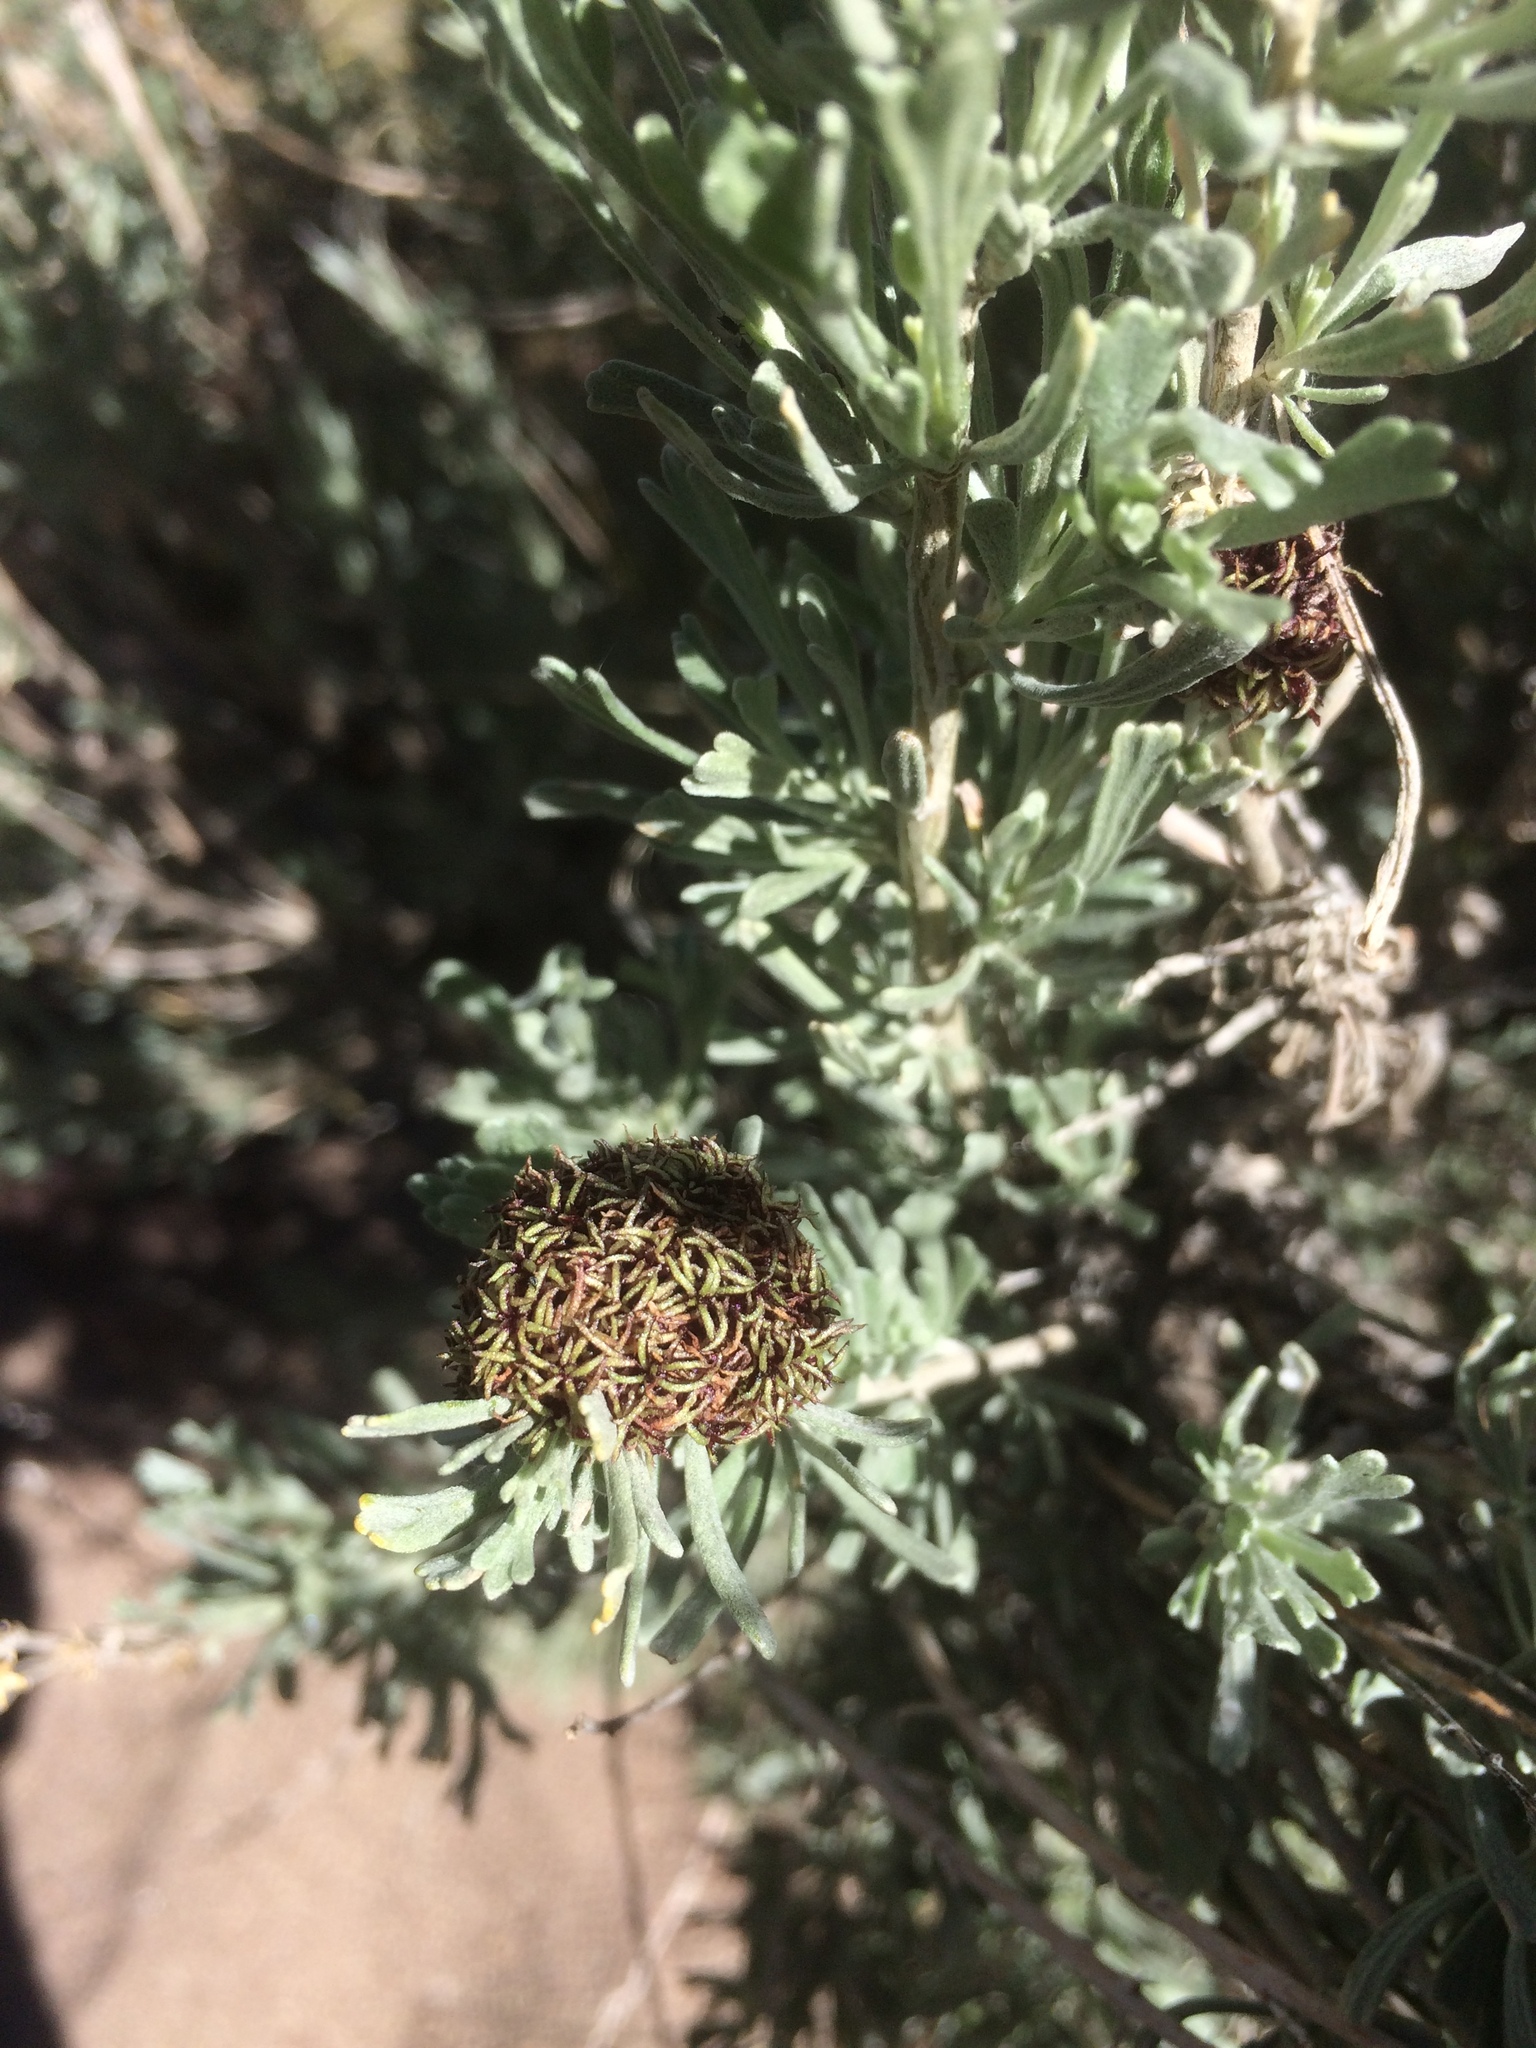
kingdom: Animalia
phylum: Arthropoda
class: Insecta
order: Diptera
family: Cecidomyiidae
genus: Rhopalomyia
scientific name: Rhopalomyia medusa
